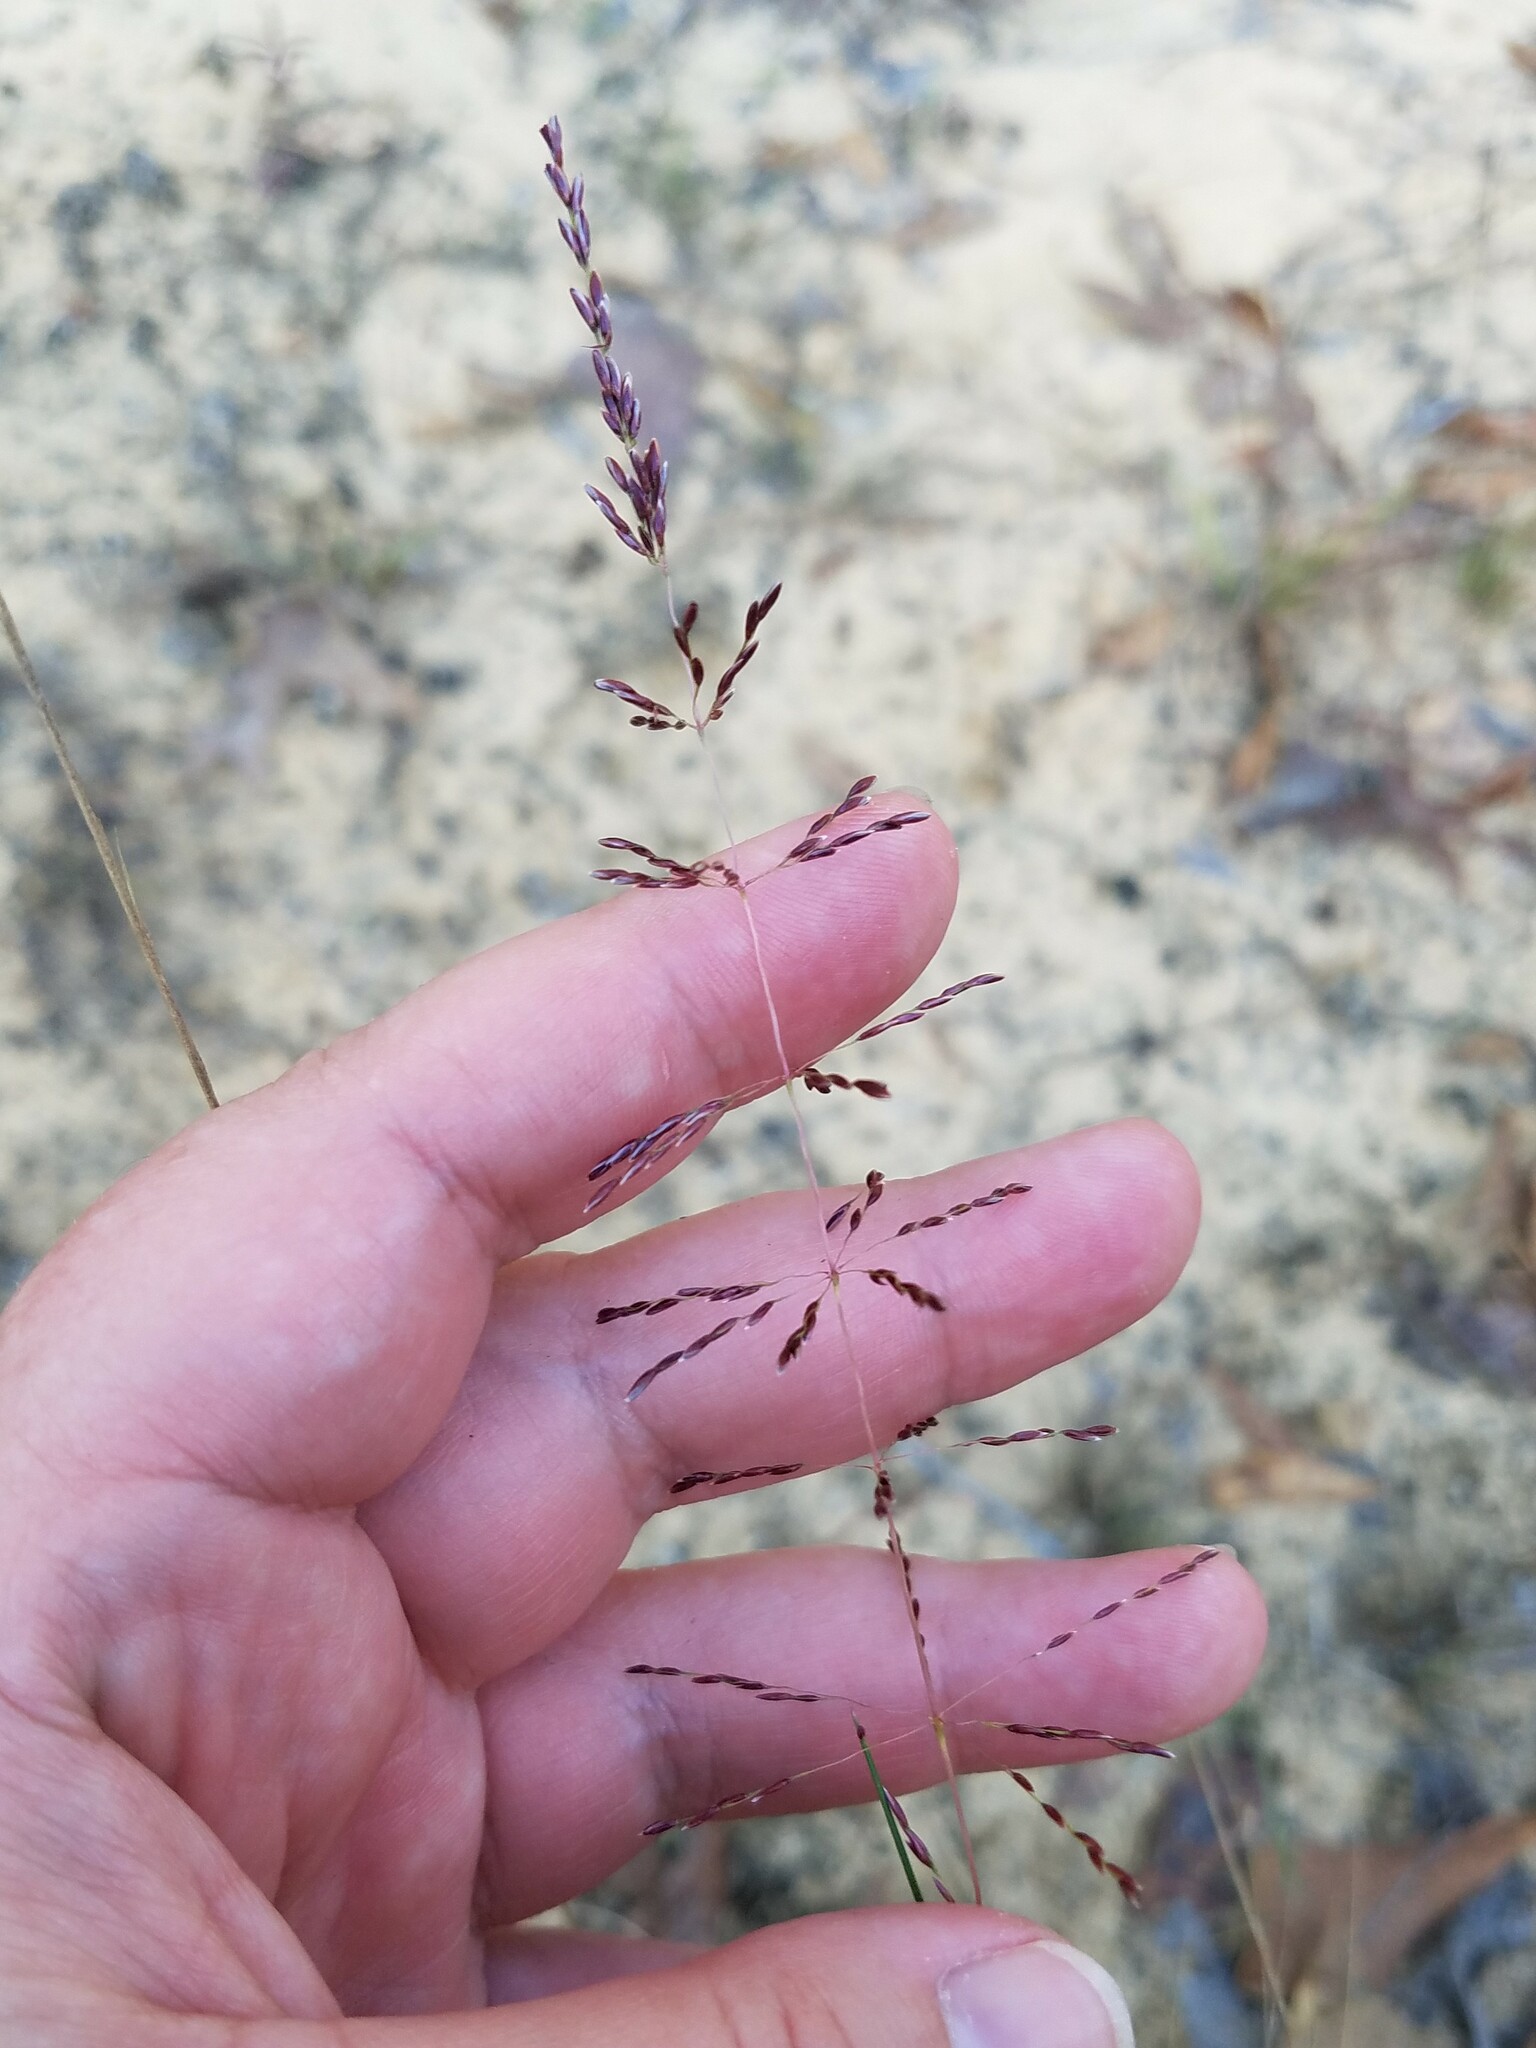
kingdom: Plantae
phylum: Tracheophyta
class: Liliopsida
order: Poales
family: Poaceae
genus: Sporobolus
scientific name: Sporobolus junceus
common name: Lizard grass
